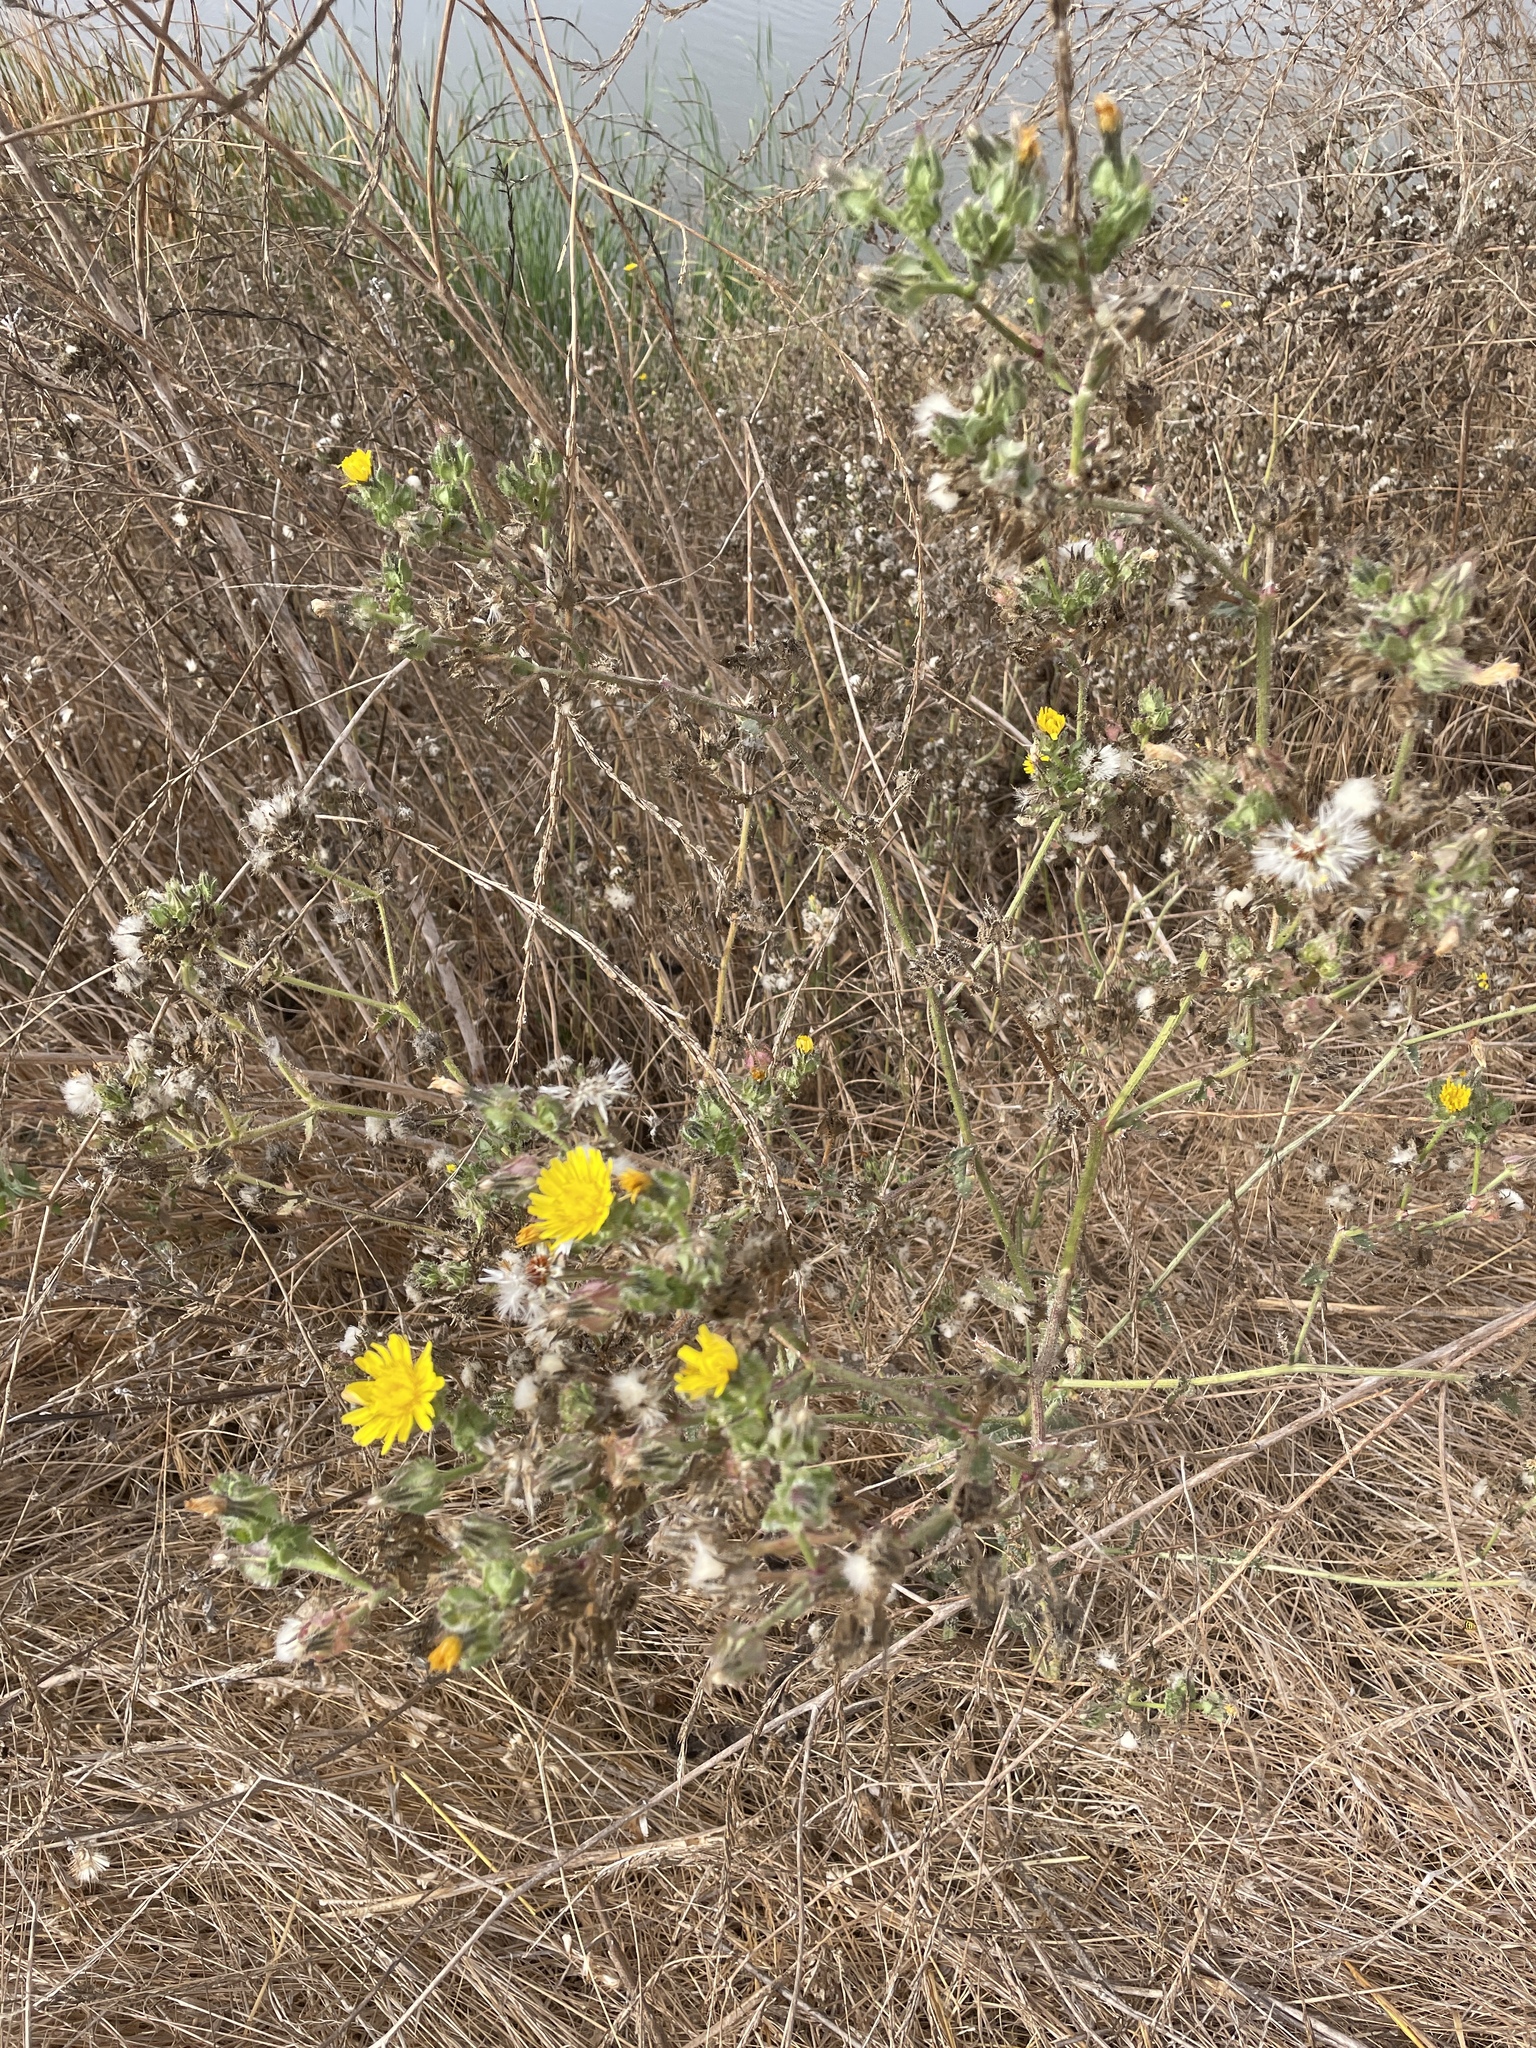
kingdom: Plantae
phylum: Tracheophyta
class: Magnoliopsida
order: Asterales
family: Asteraceae
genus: Helminthotheca
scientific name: Helminthotheca echioides
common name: Ox-tongue
